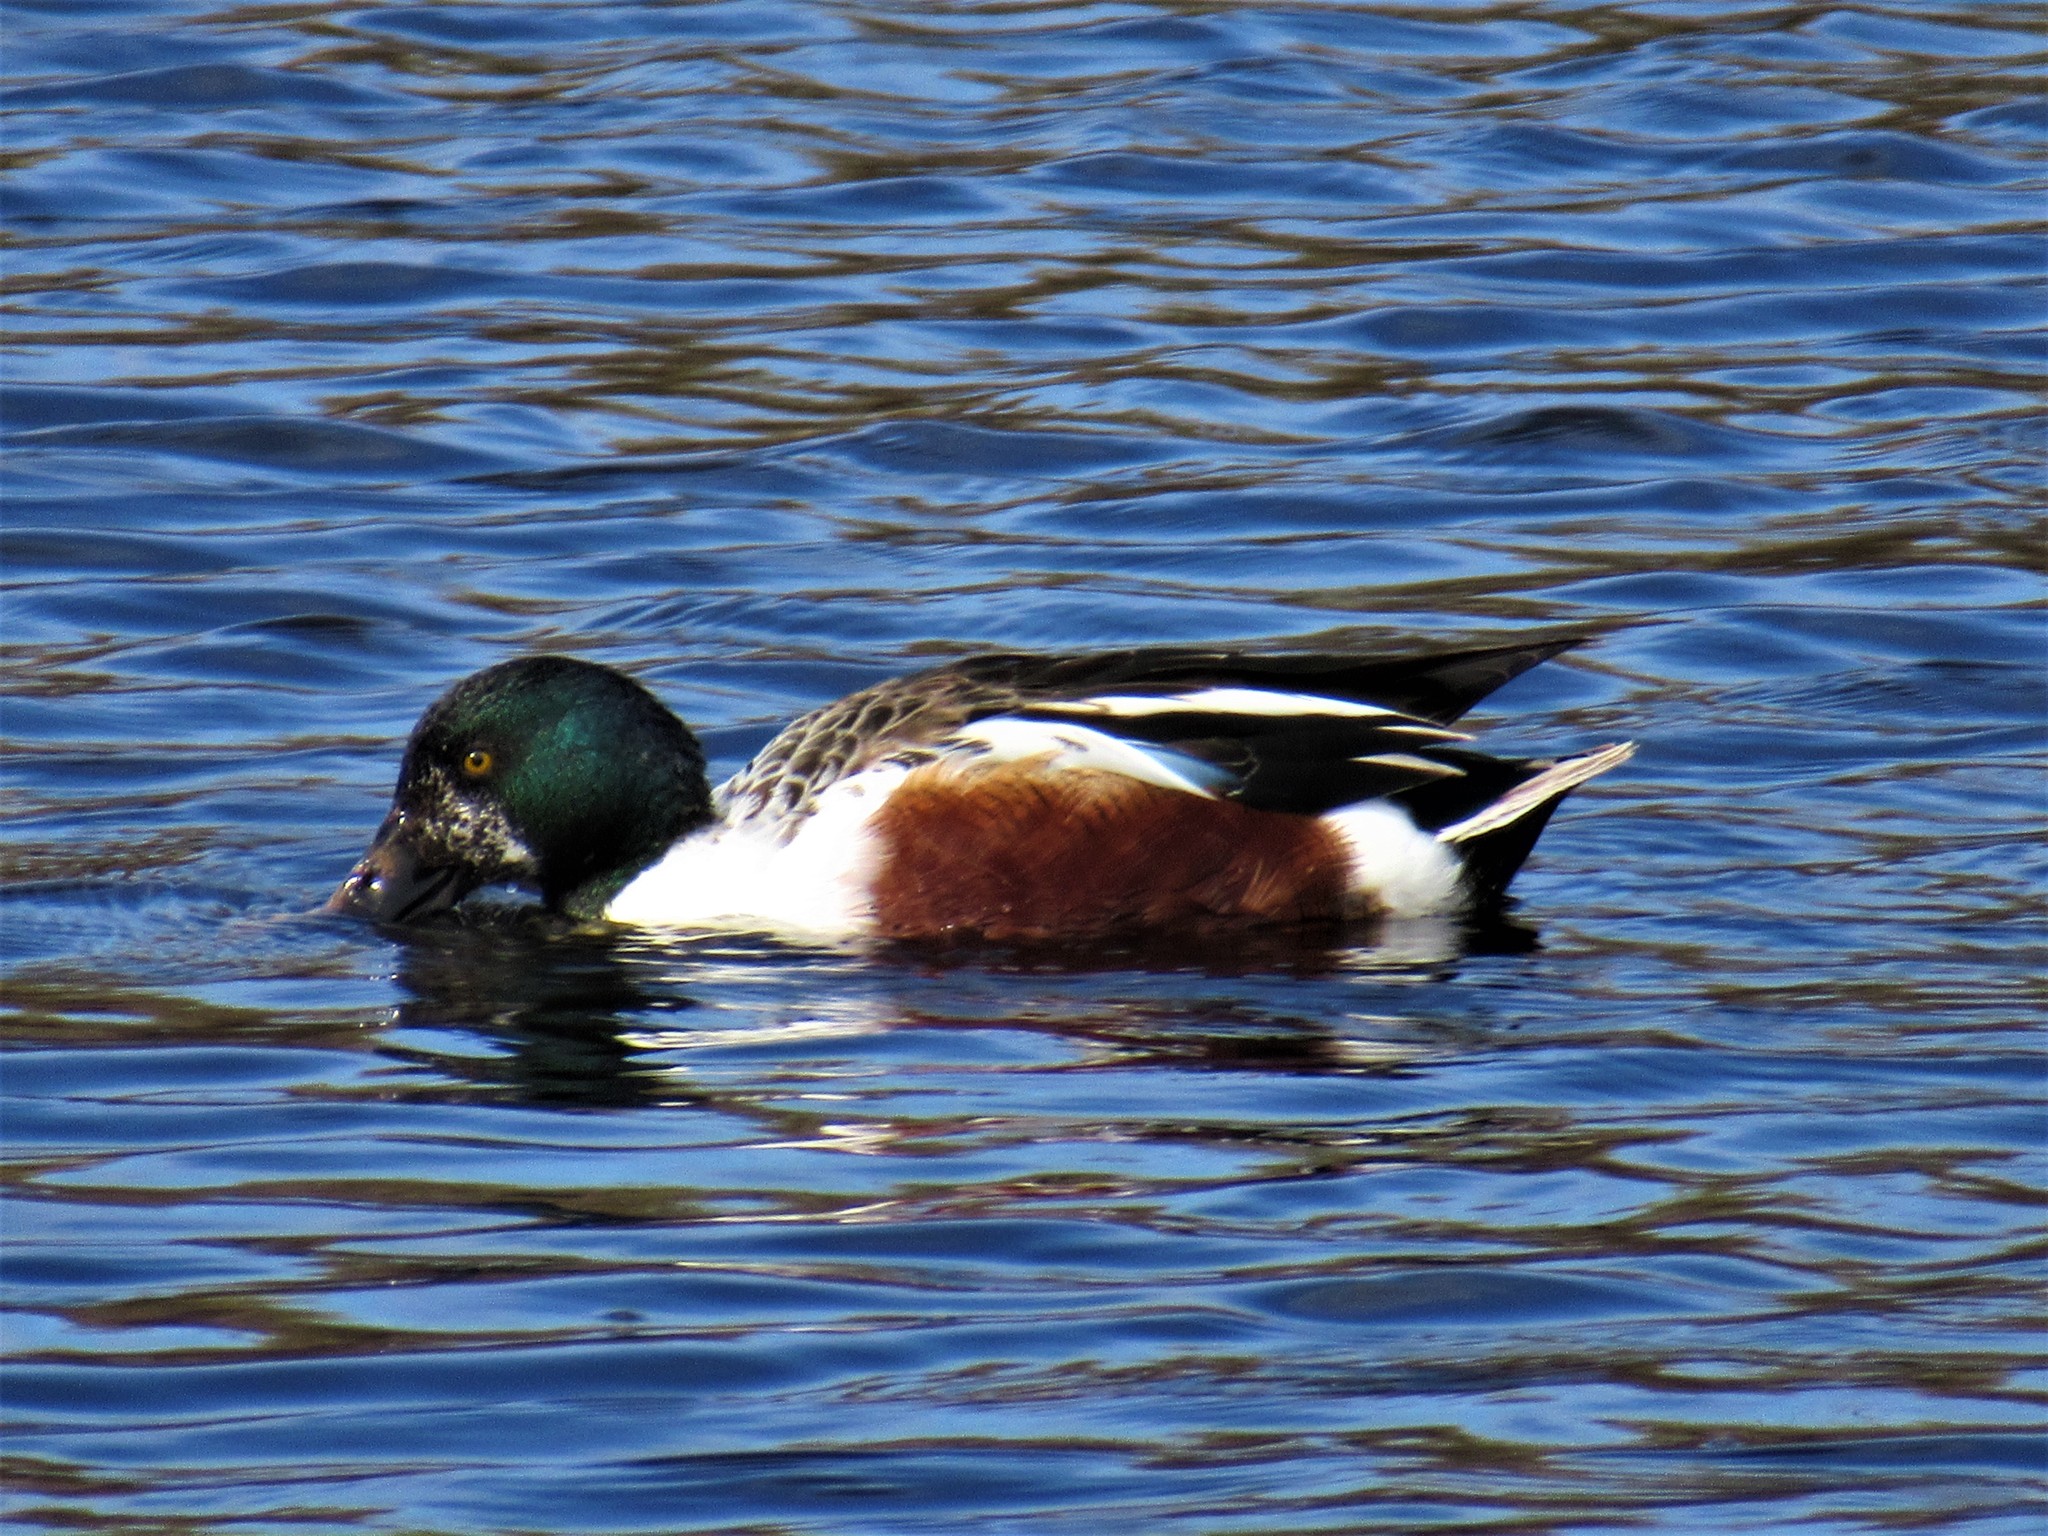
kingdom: Animalia
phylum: Chordata
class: Aves
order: Anseriformes
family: Anatidae
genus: Spatula
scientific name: Spatula clypeata
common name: Northern shoveler
